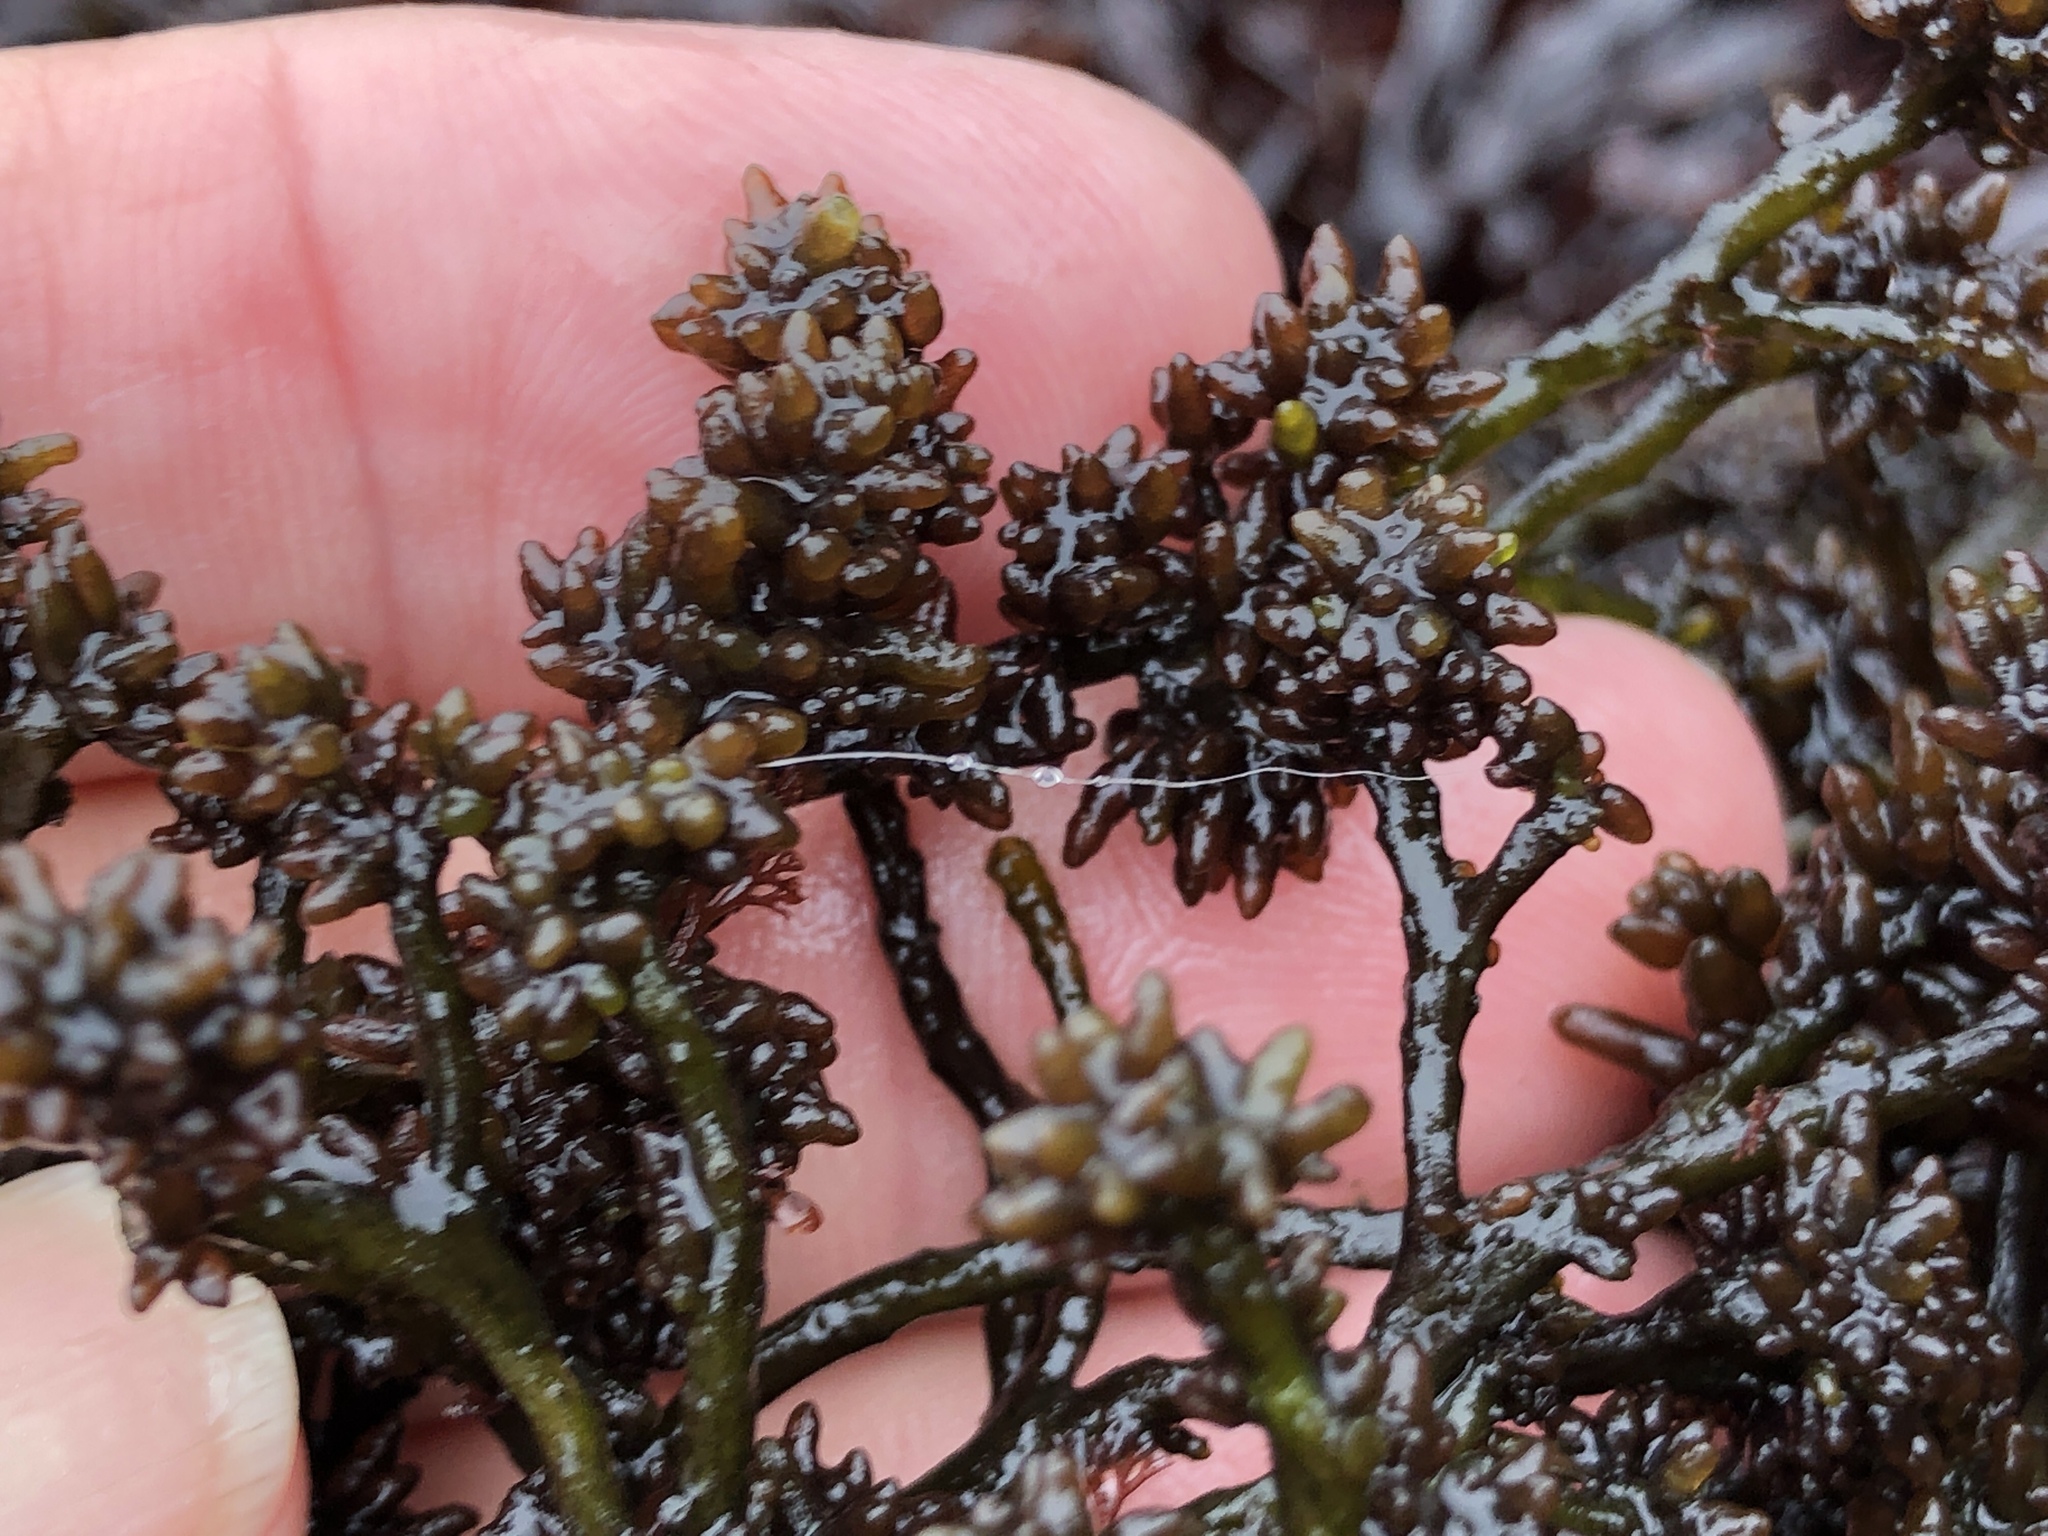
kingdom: Plantae
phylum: Rhodophyta
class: Florideophyceae
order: Rhodymeniales
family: Champiaceae
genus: Neogastroclonium
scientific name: Neogastroclonium subarticulatum
